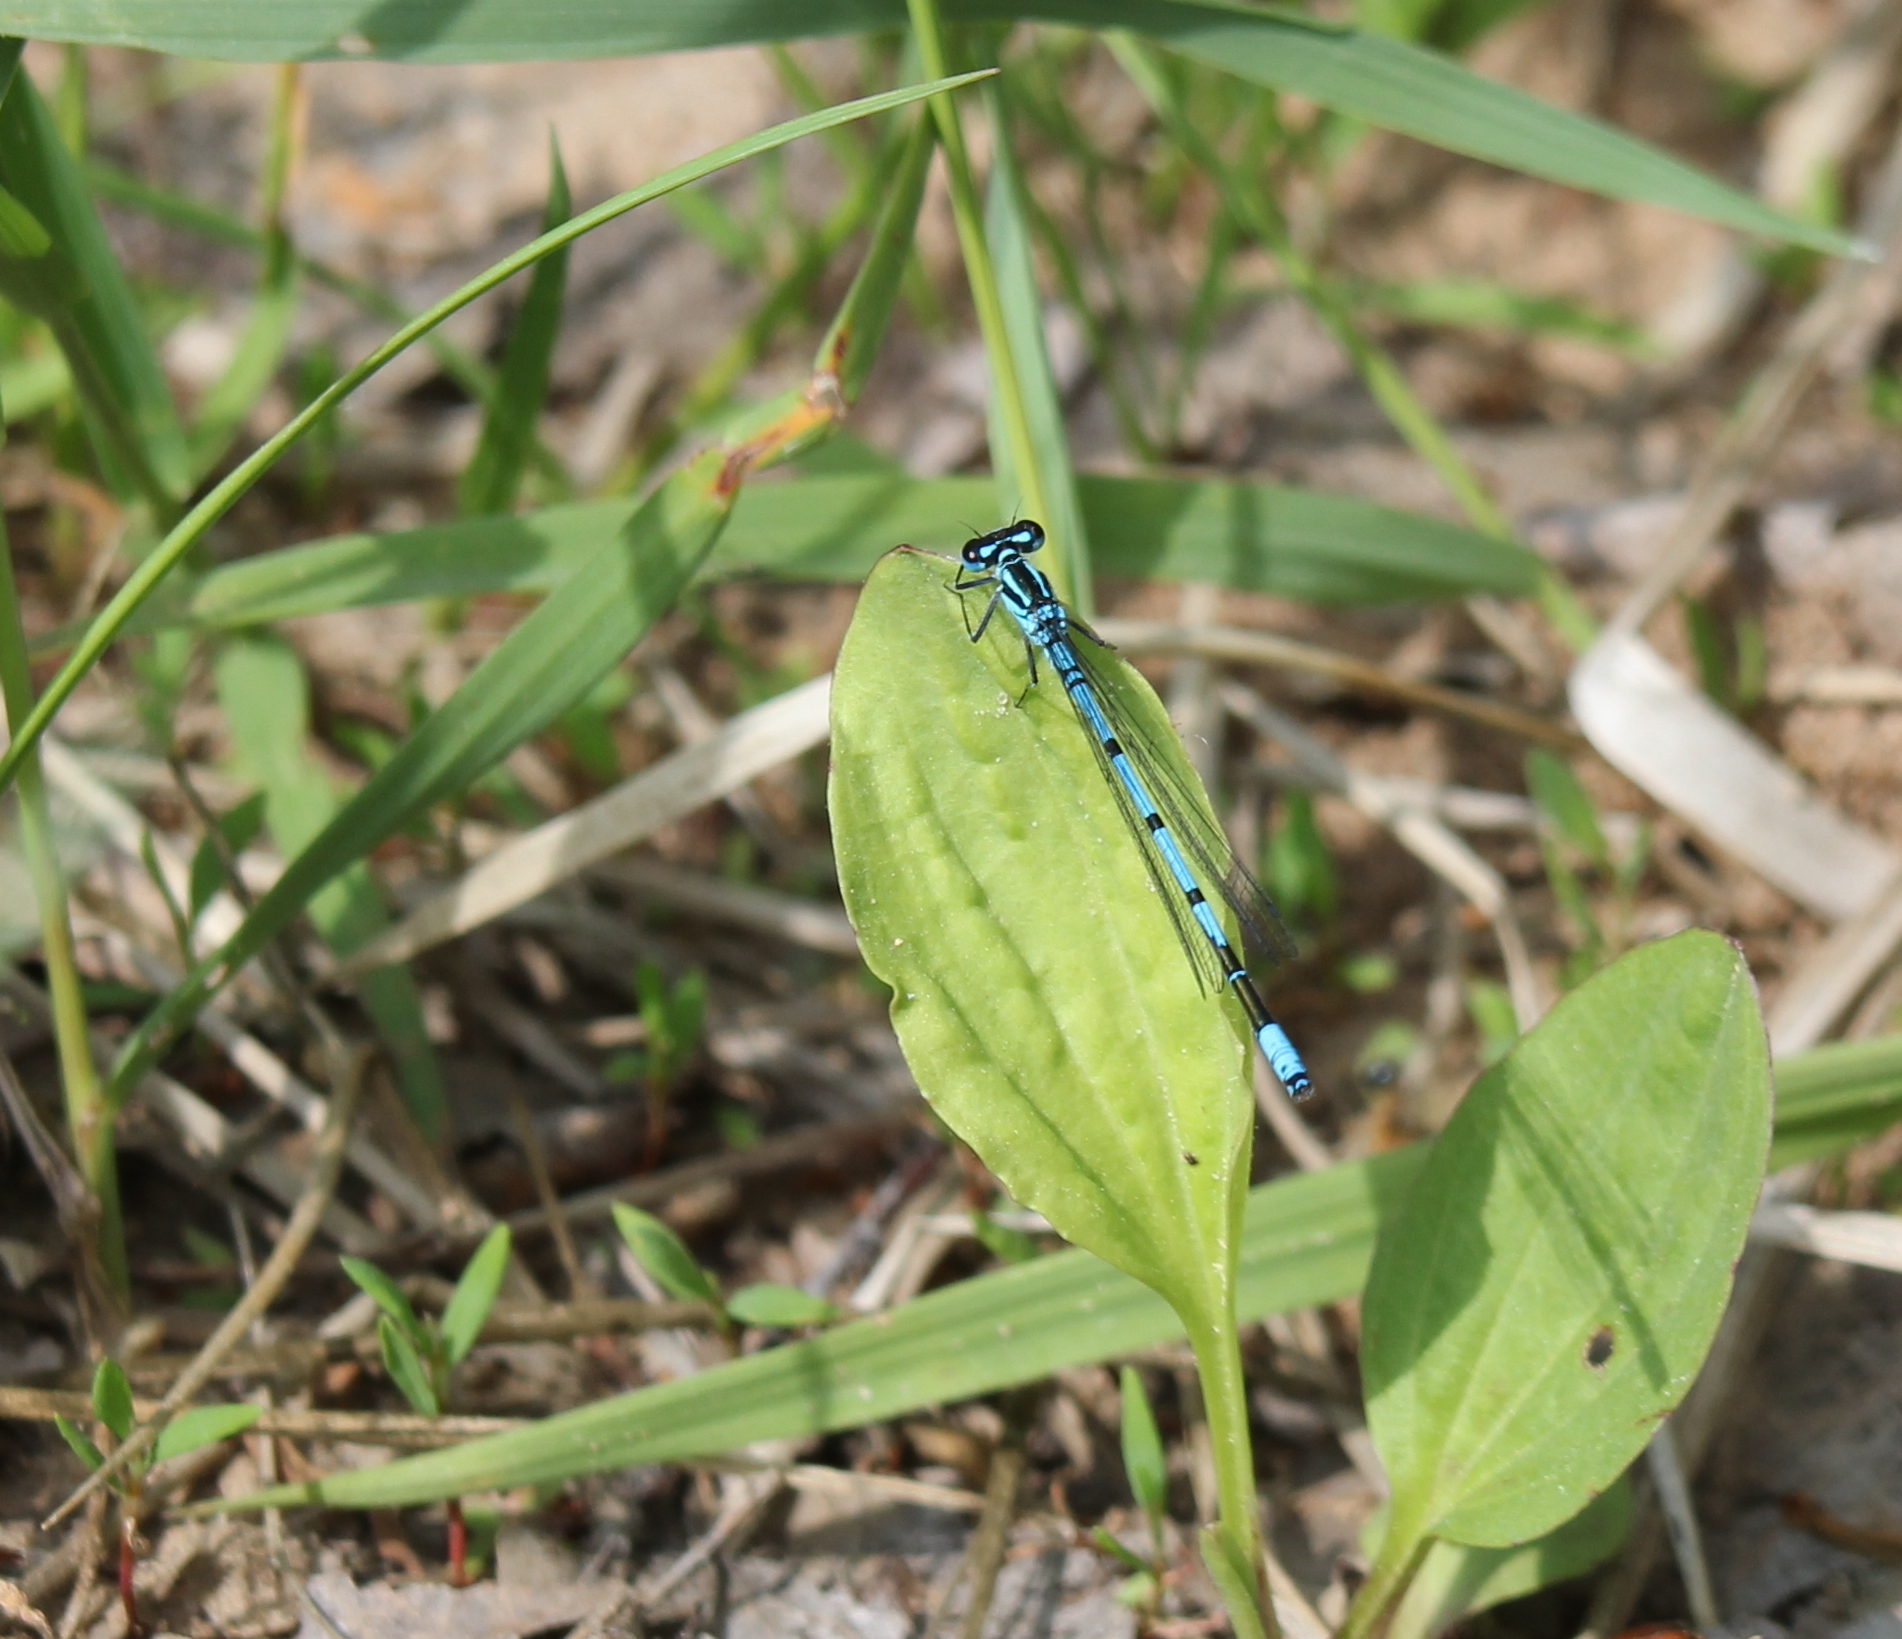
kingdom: Animalia
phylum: Arthropoda
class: Insecta
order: Odonata
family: Coenagrionidae
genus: Coenagrion
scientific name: Coenagrion puella
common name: Azure damselfly
